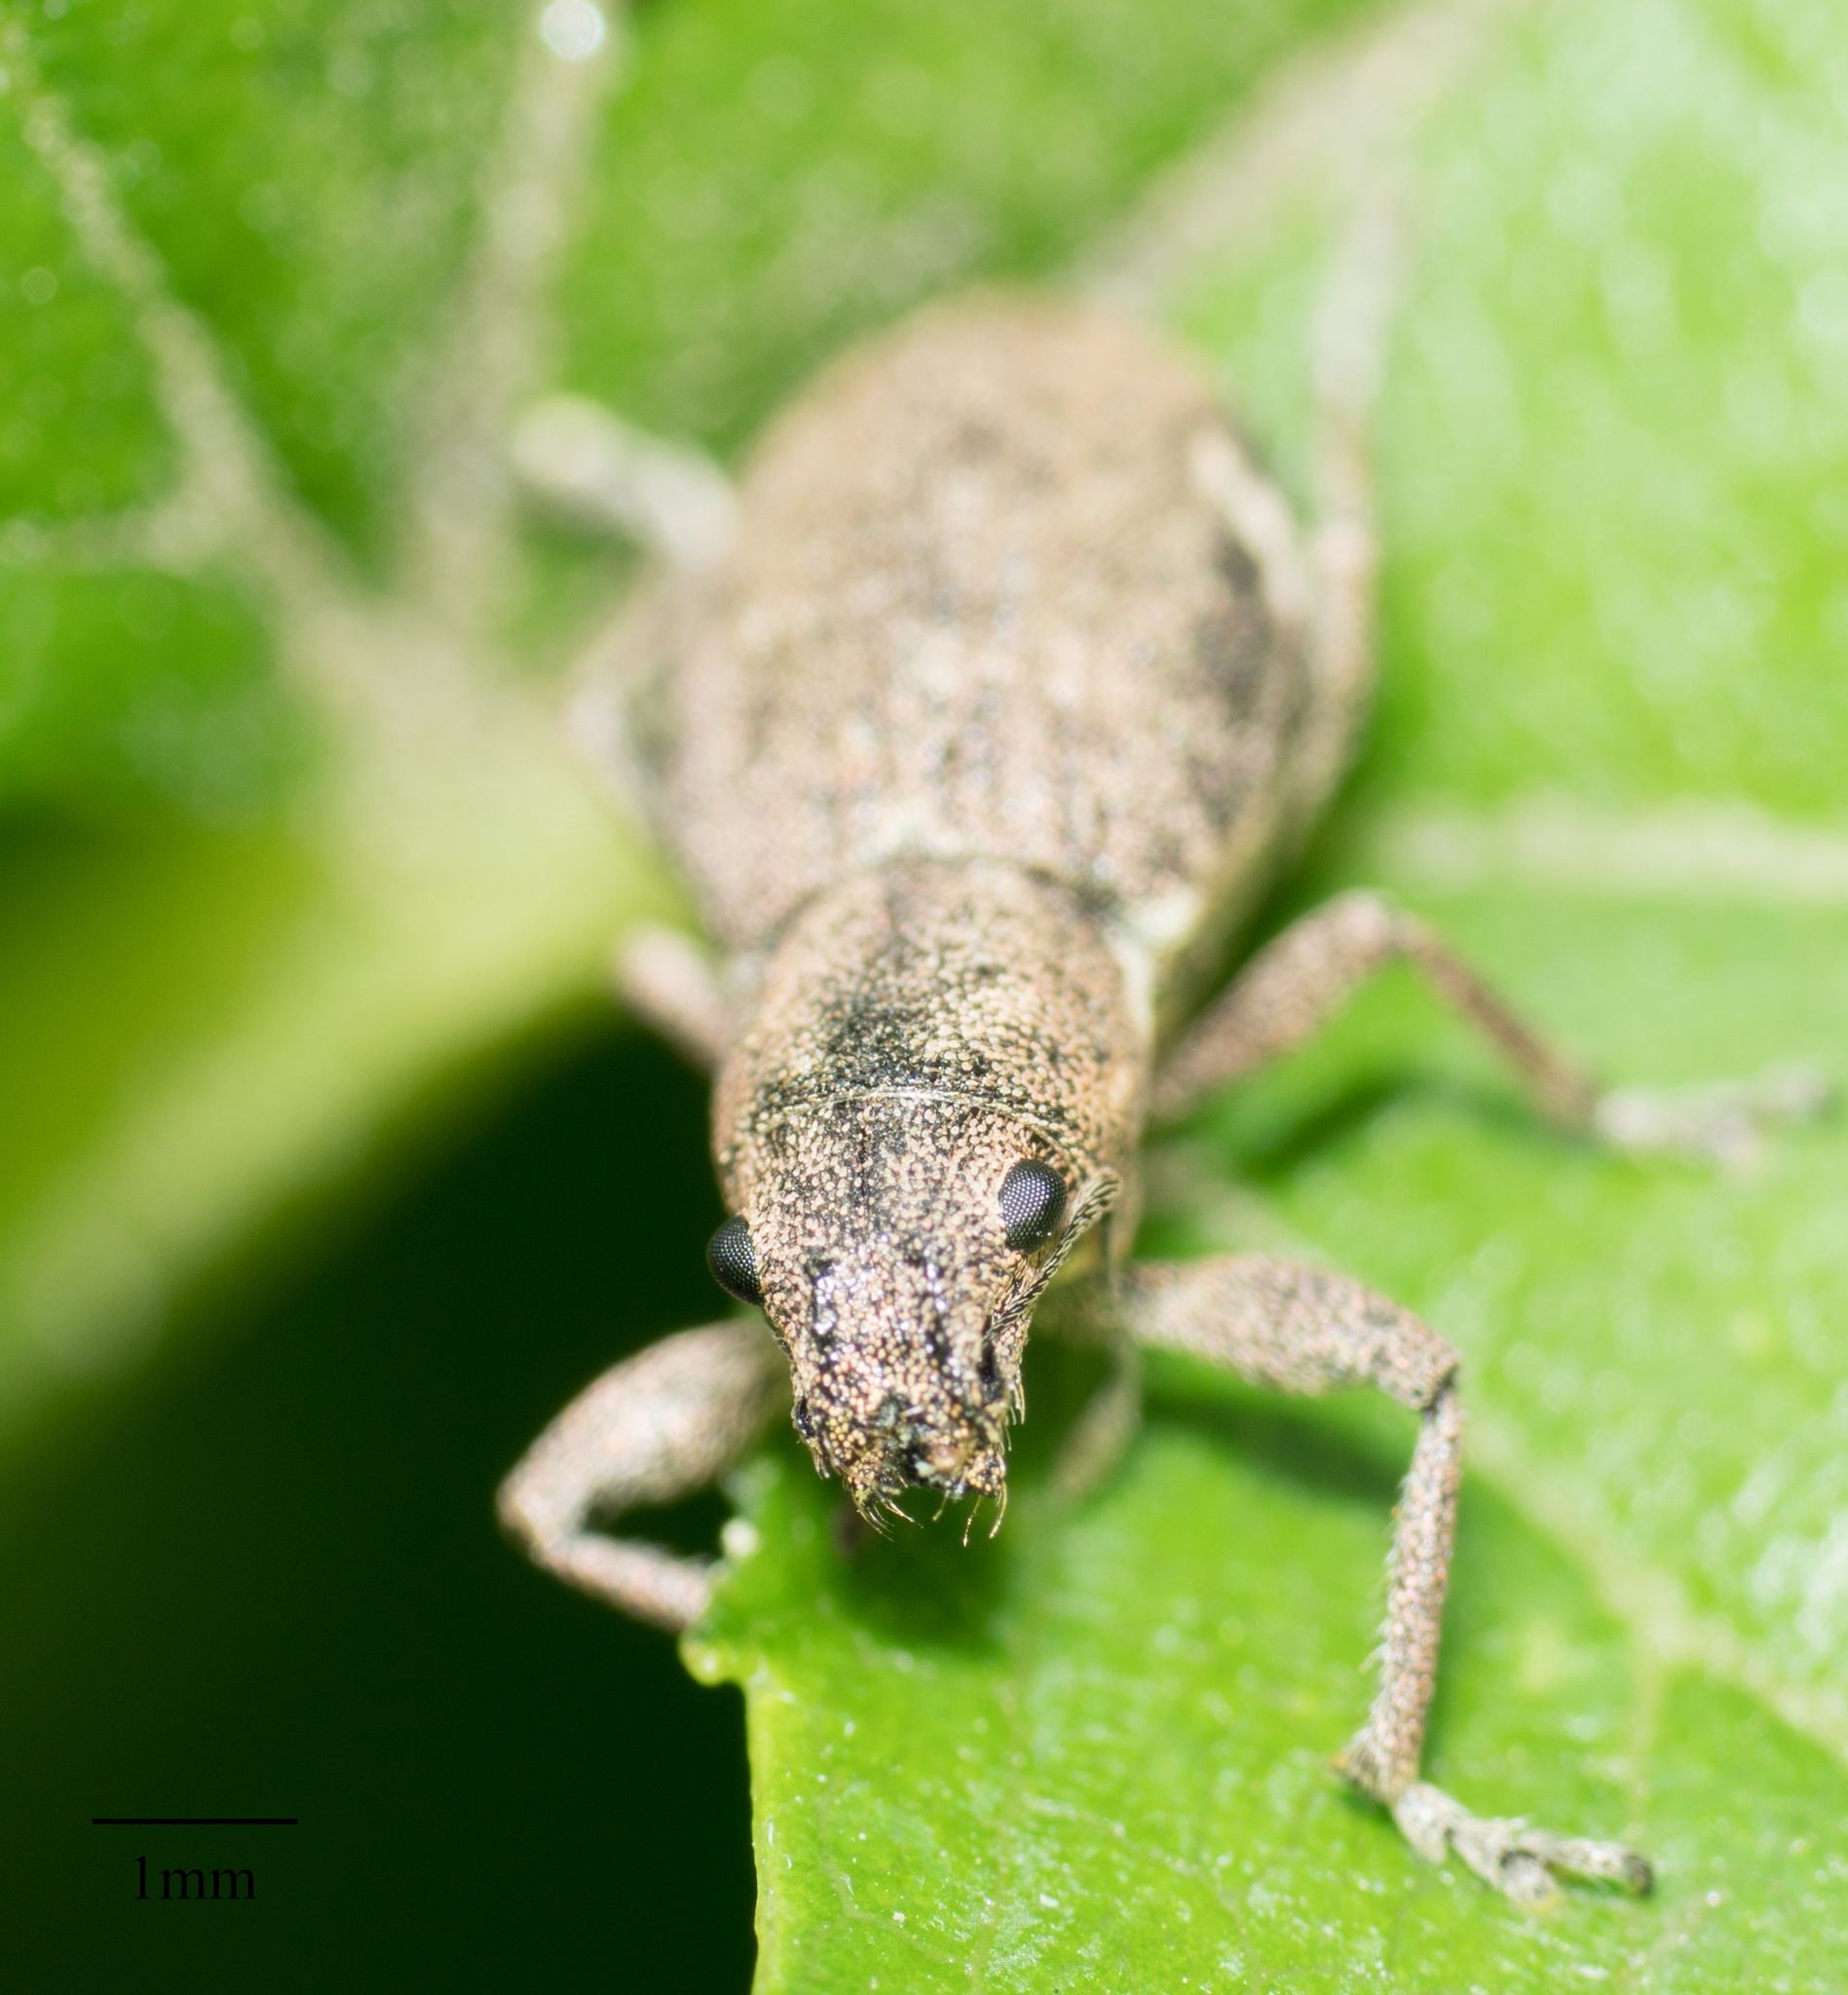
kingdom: Animalia
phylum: Arthropoda
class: Insecta
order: Coleoptera
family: Curculionidae
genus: Naupactus
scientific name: Naupactus cervinus
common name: Fuller rose beetle
